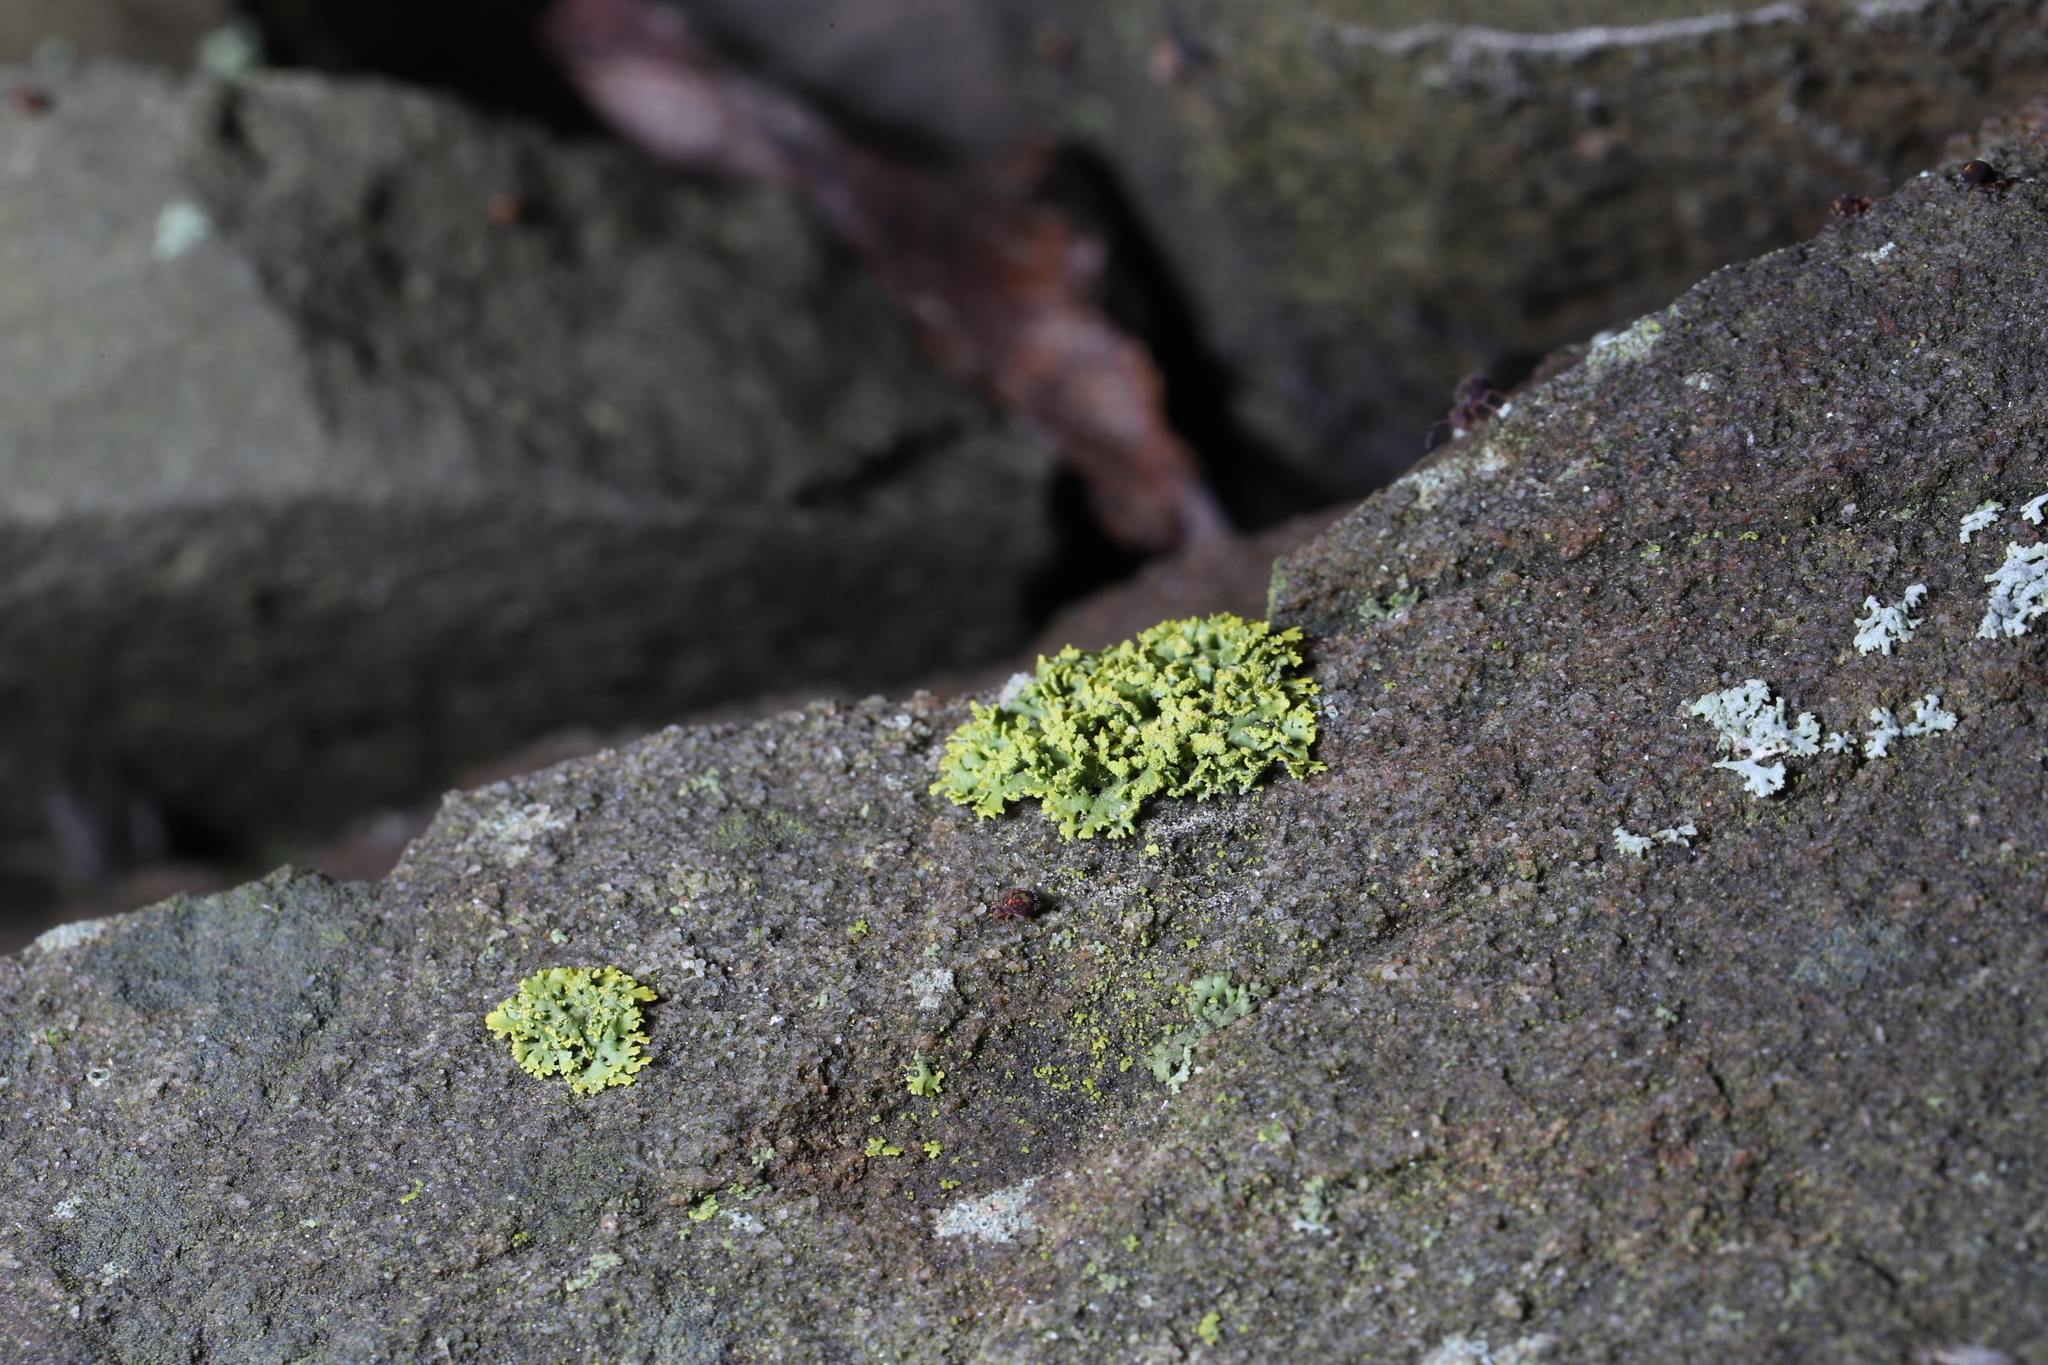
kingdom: Fungi
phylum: Ascomycota
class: Candelariomycetes
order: Candelariales
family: Candelariaceae
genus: Candelaria
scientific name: Candelaria concolor
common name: Candleflame lichen
